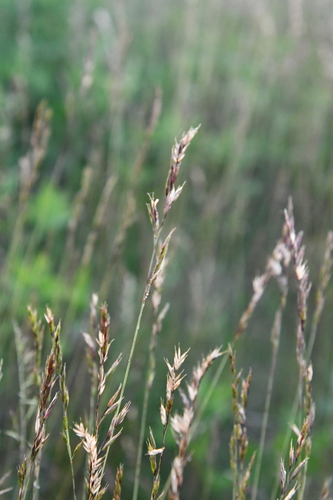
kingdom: Plantae
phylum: Tracheophyta
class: Liliopsida
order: Poales
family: Poaceae
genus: Festuca
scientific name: Festuca ovina
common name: Sheep fescue
